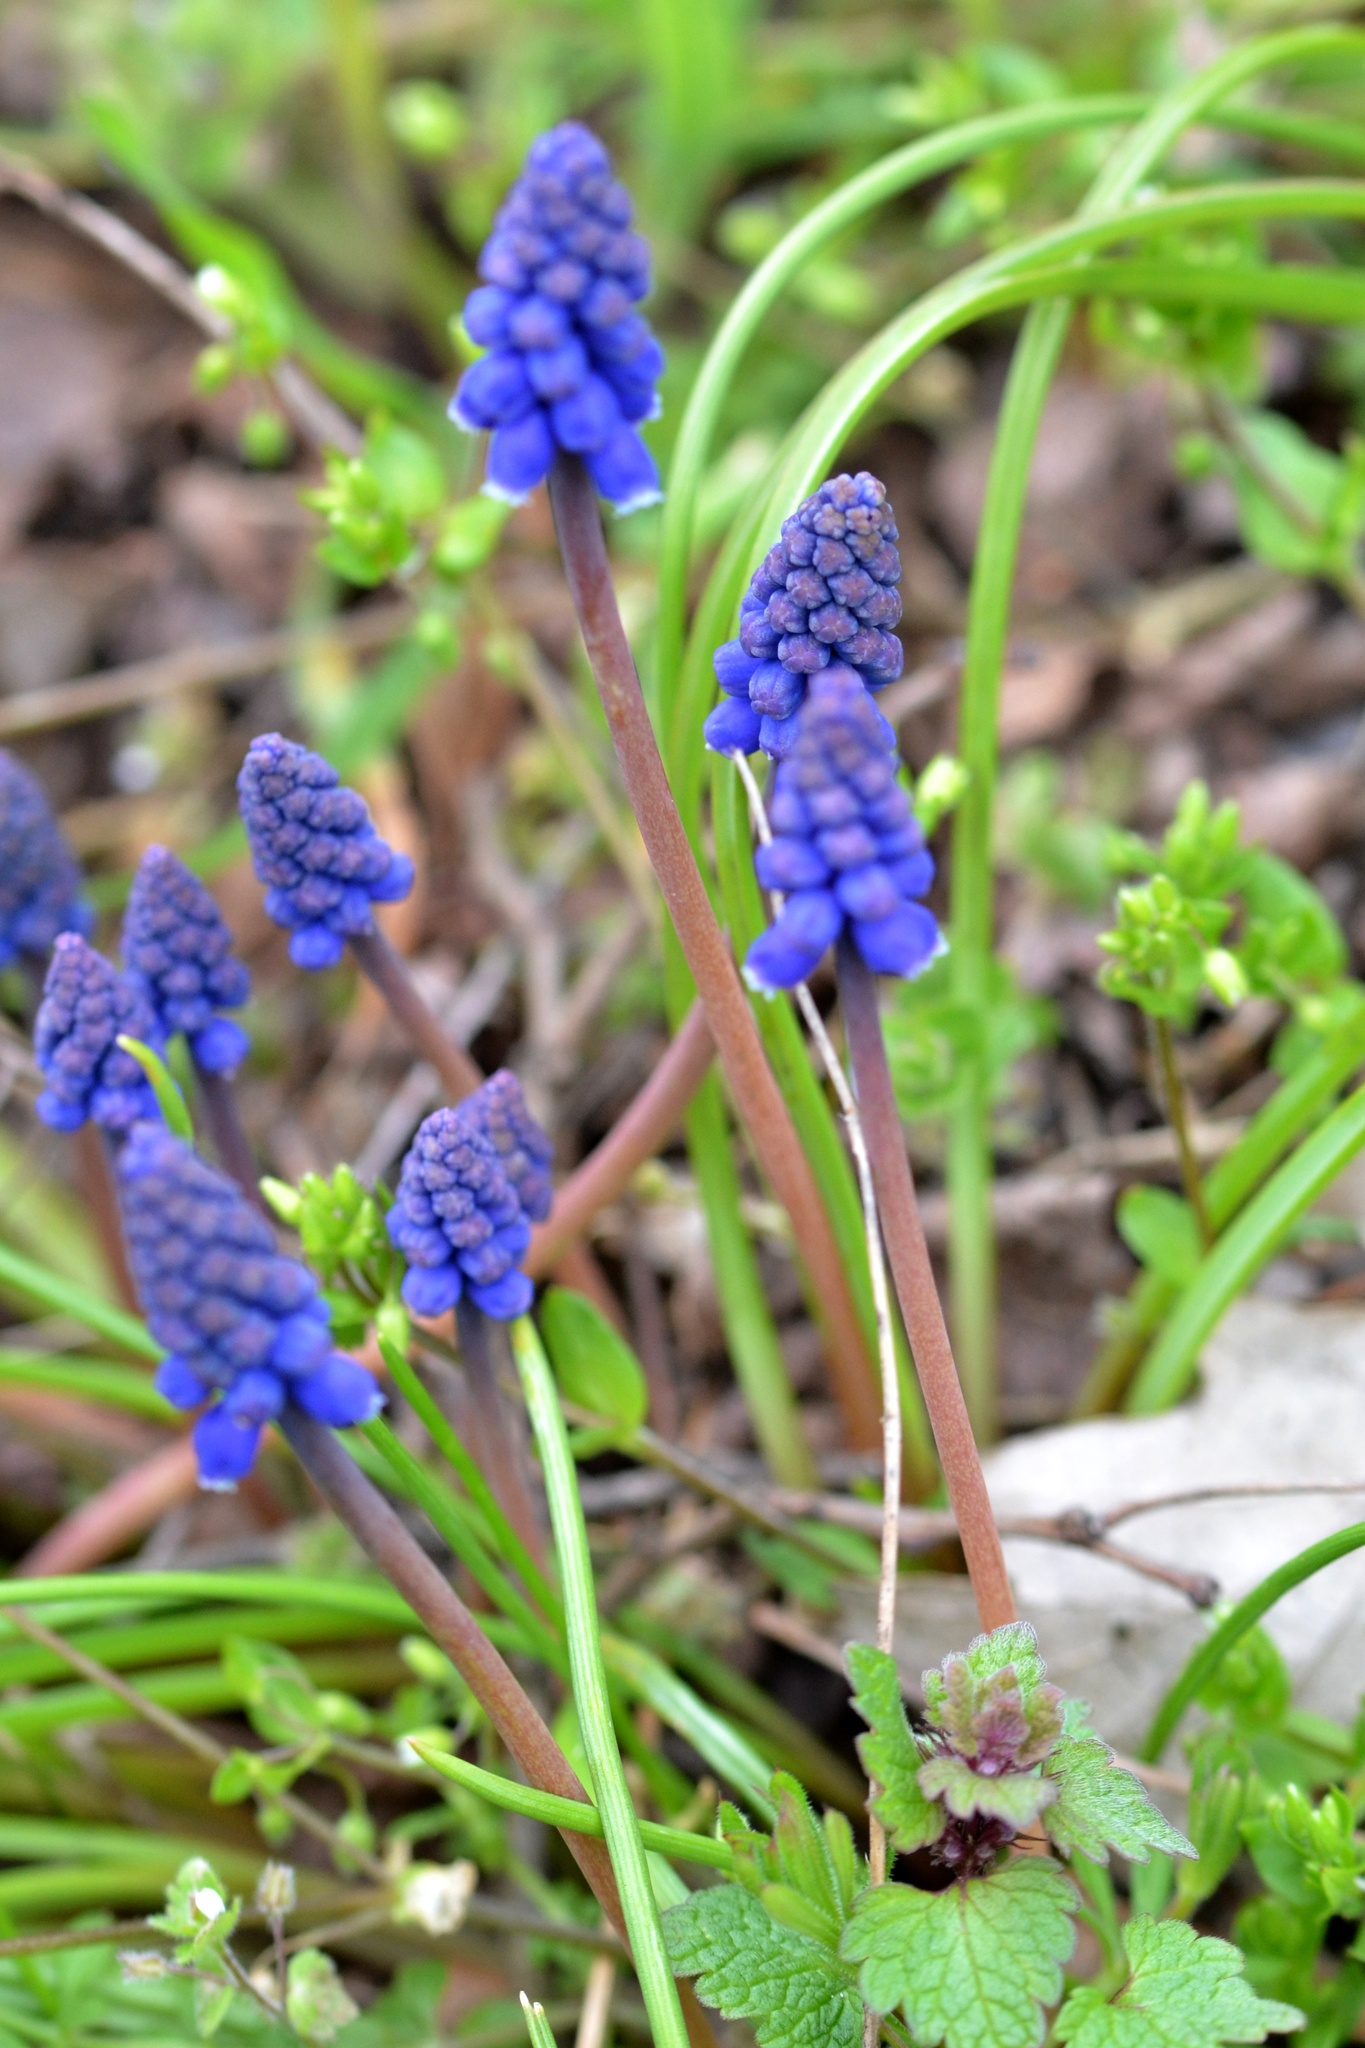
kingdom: Plantae
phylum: Tracheophyta
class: Liliopsida
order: Asparagales
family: Asparagaceae
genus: Muscari
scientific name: Muscari armeniacum
